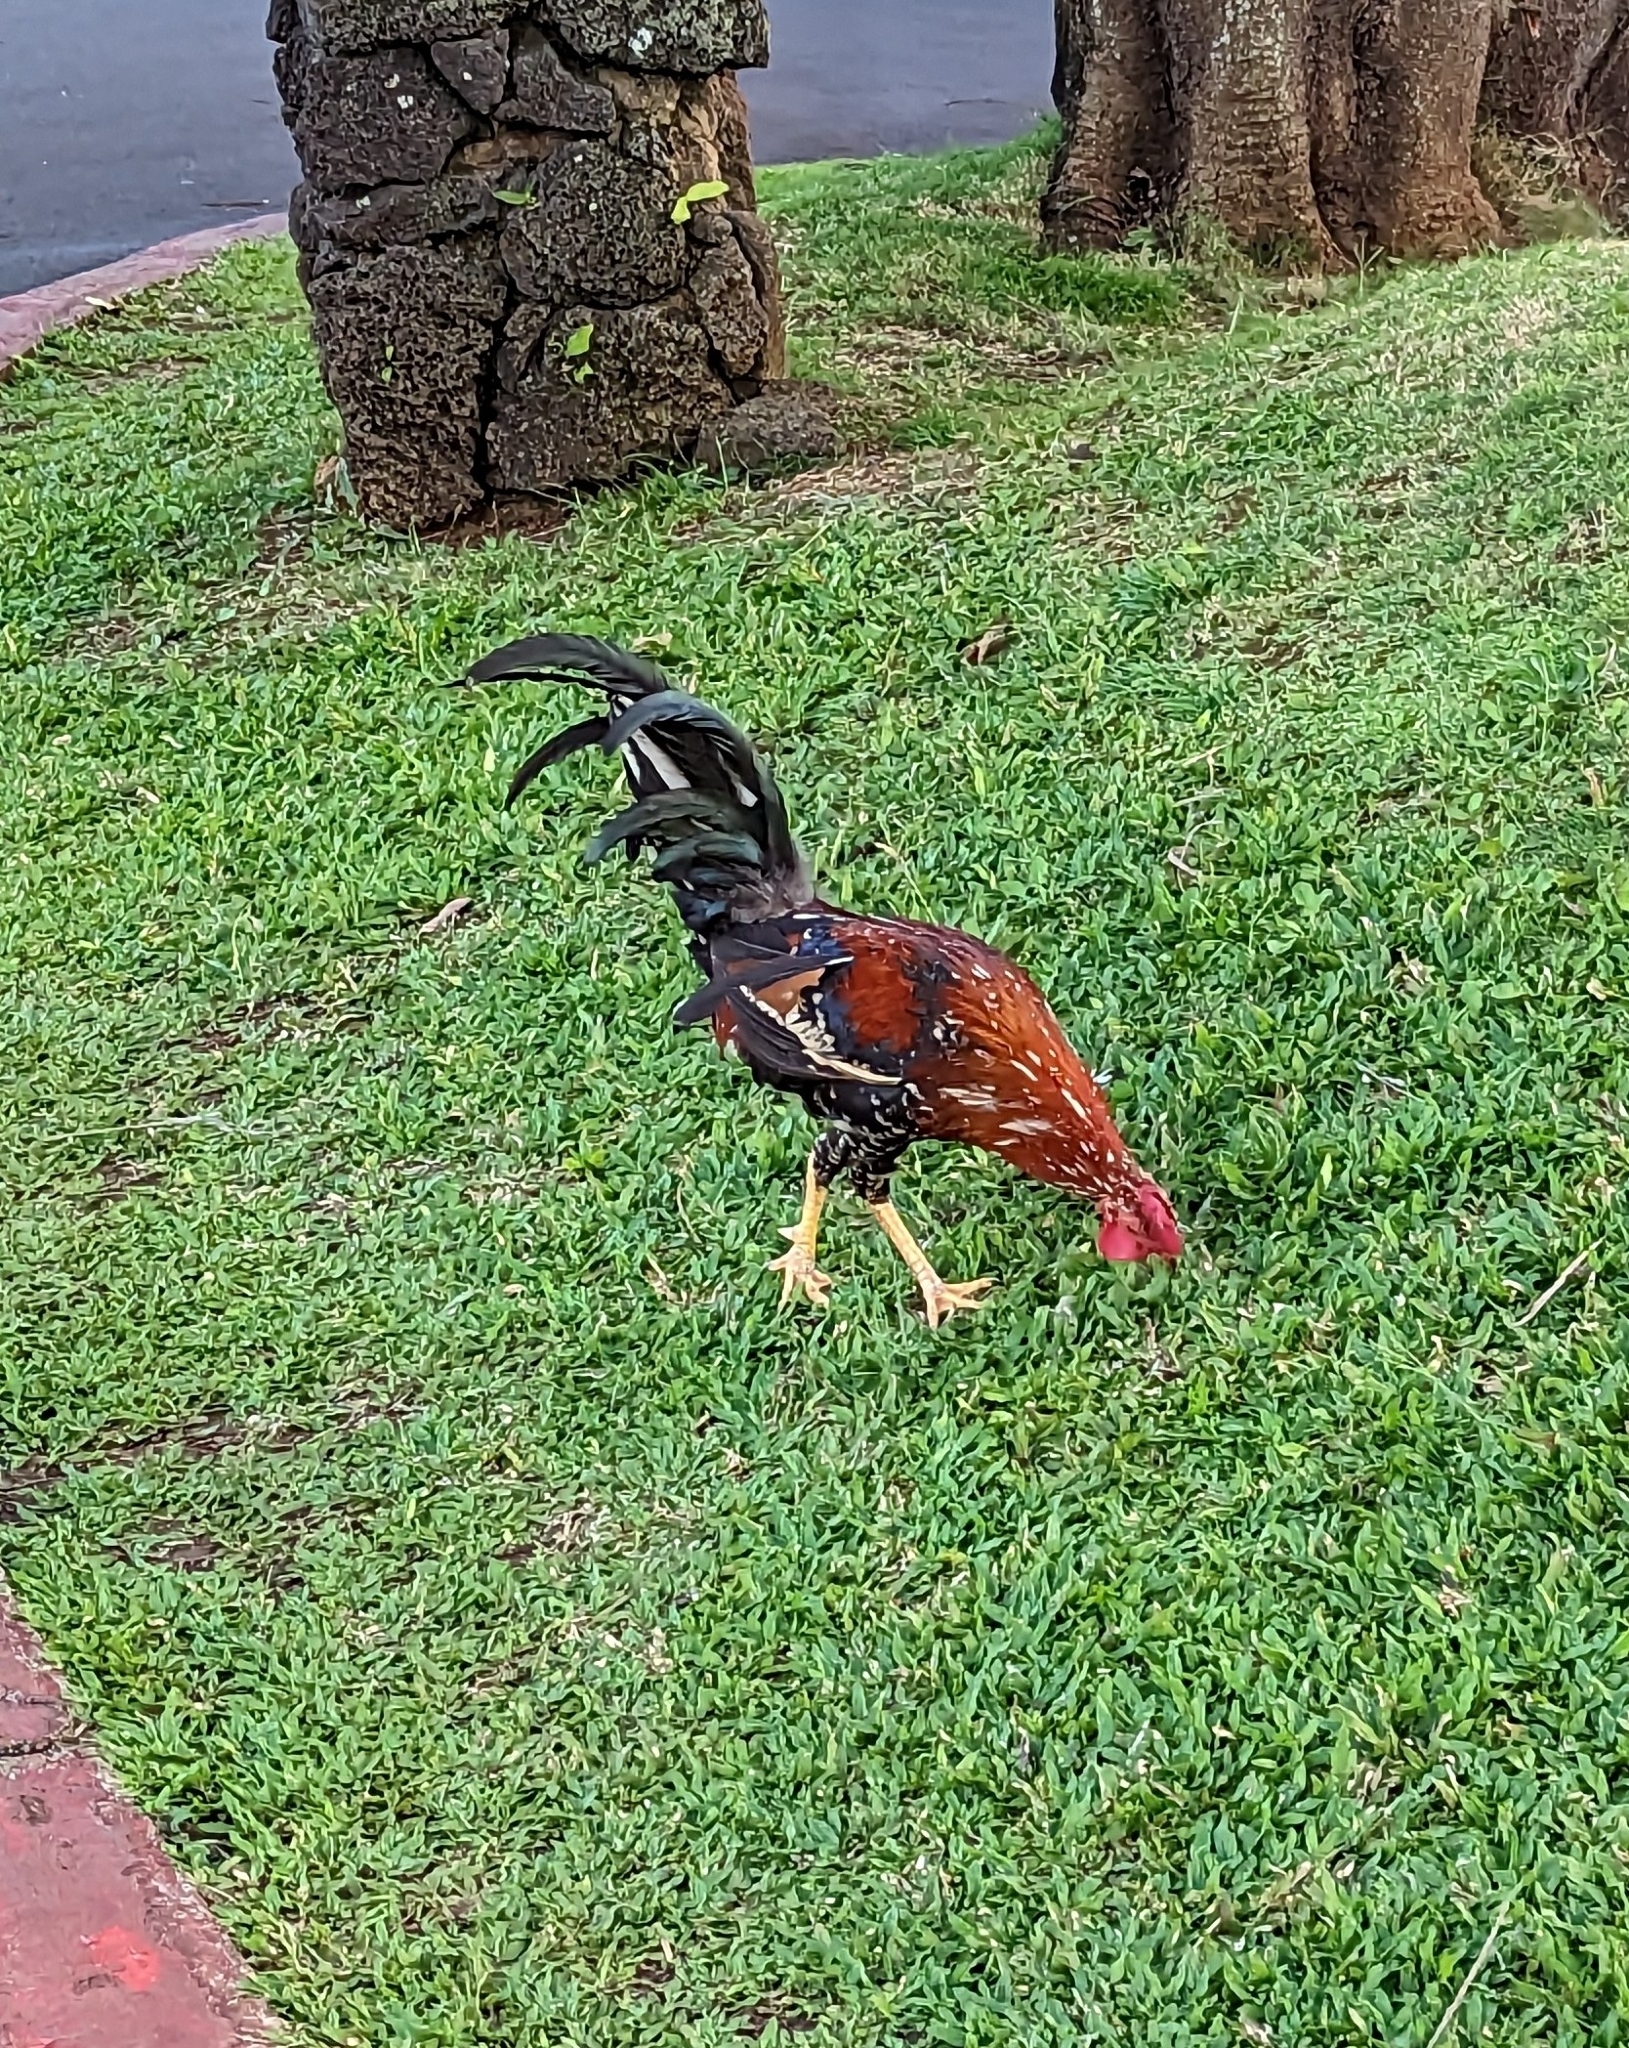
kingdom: Animalia
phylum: Chordata
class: Aves
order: Galliformes
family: Phasianidae
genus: Gallus
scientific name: Gallus gallus
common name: Red junglefowl
